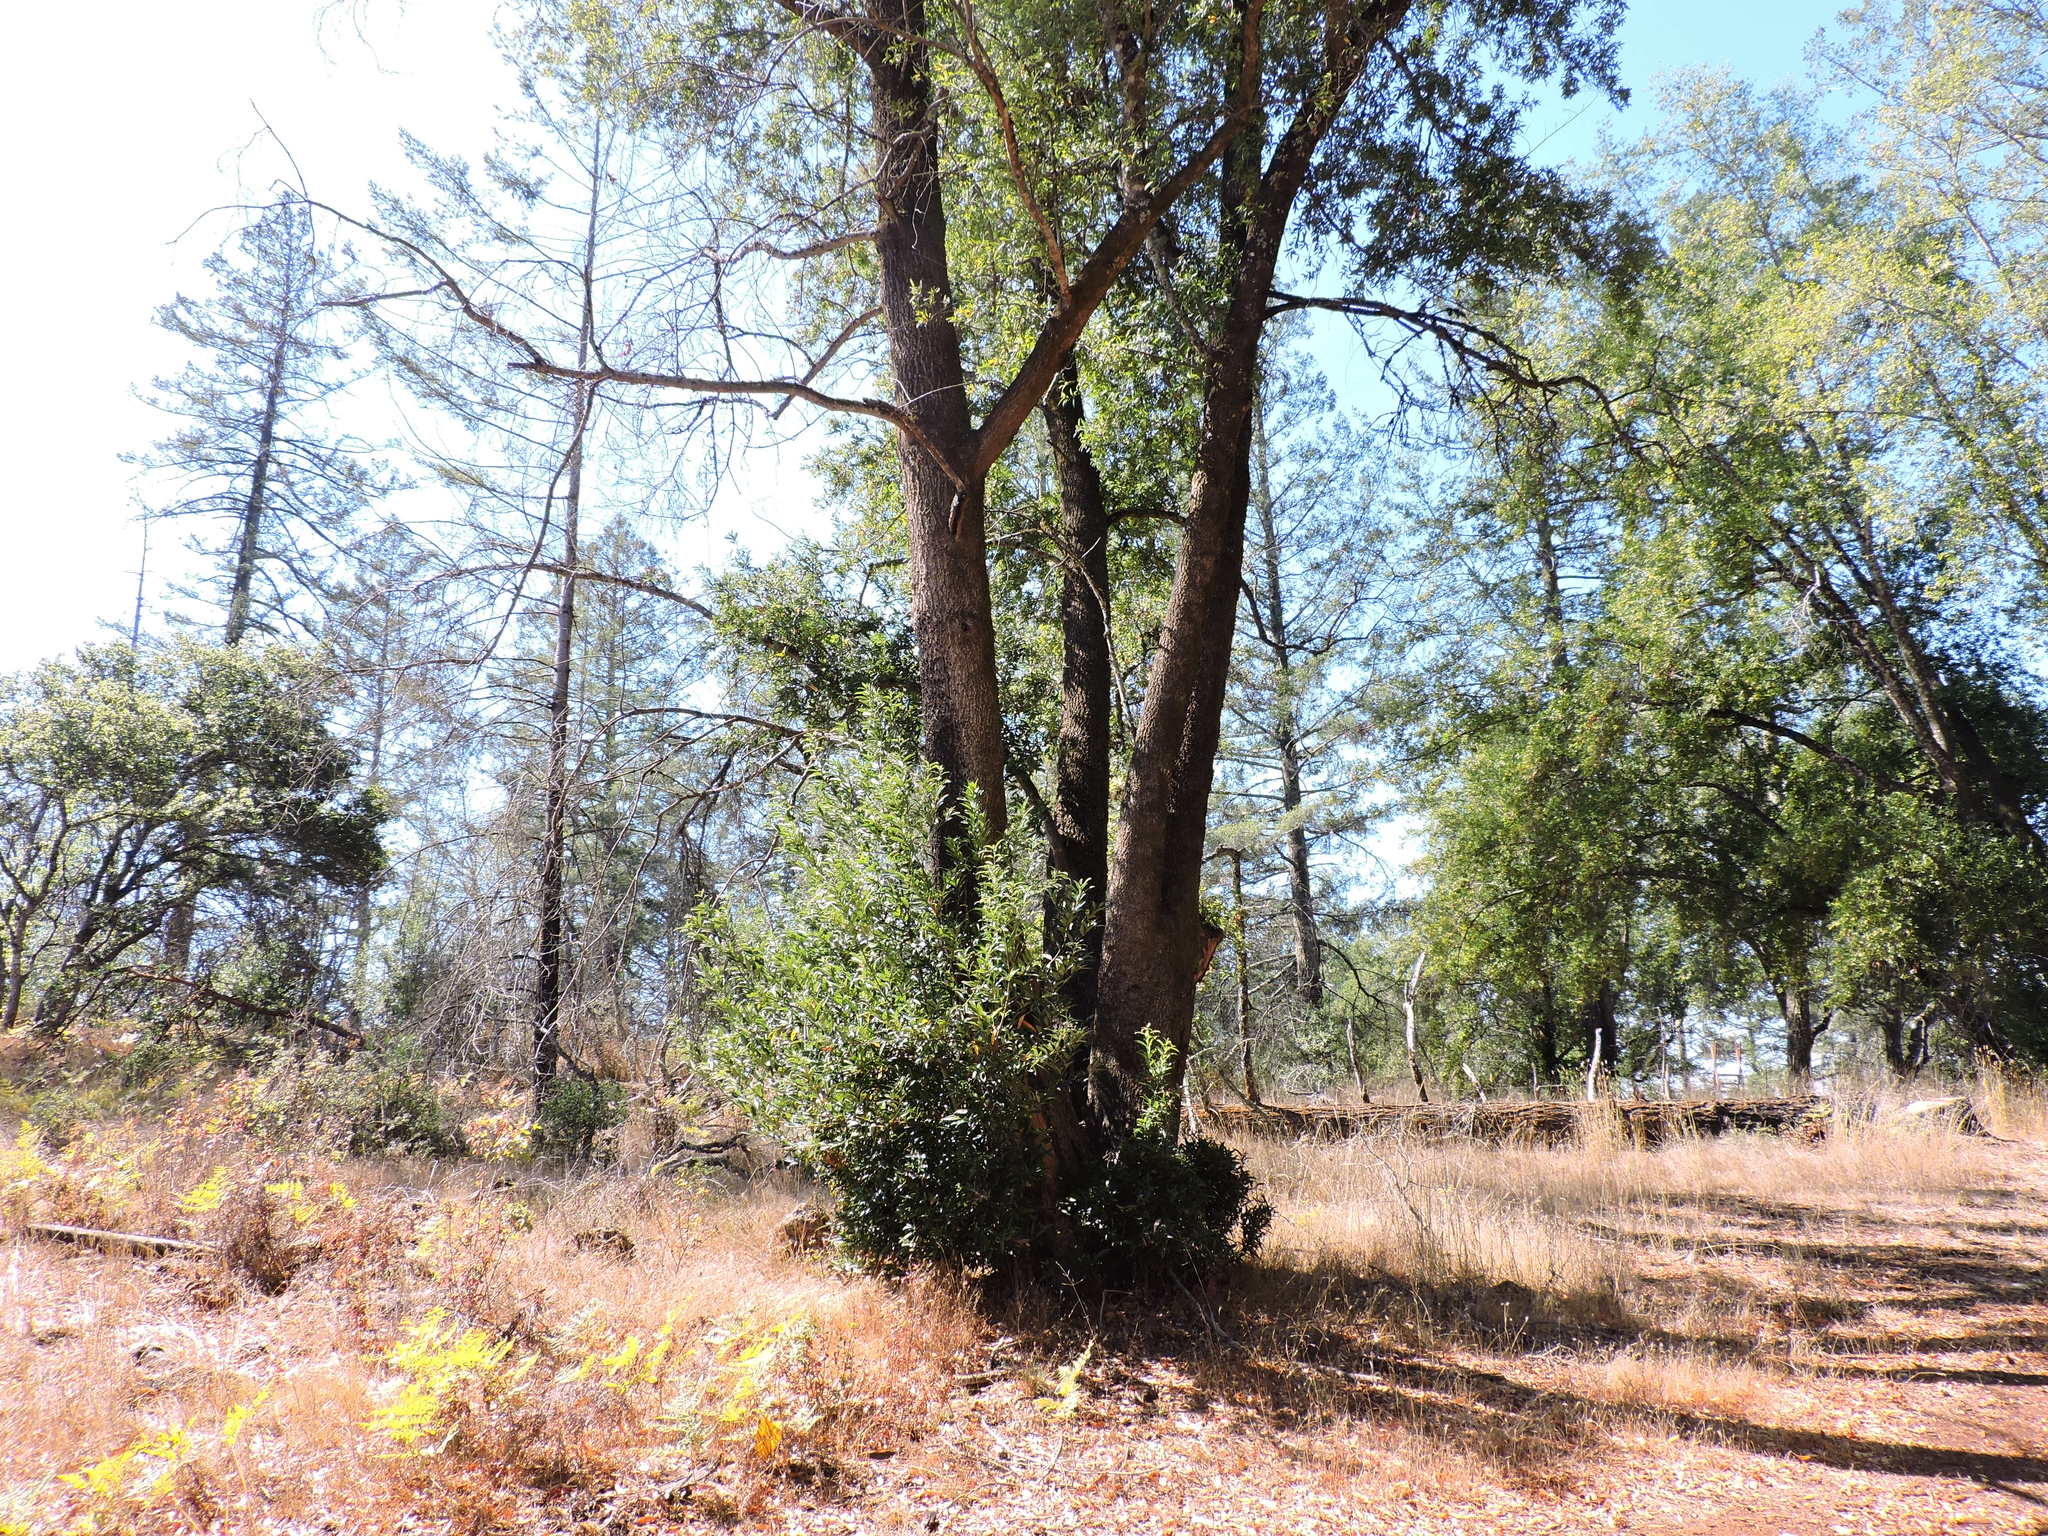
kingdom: Plantae
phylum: Tracheophyta
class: Magnoliopsida
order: Laurales
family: Lauraceae
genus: Umbellularia
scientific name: Umbellularia californica
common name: California bay
